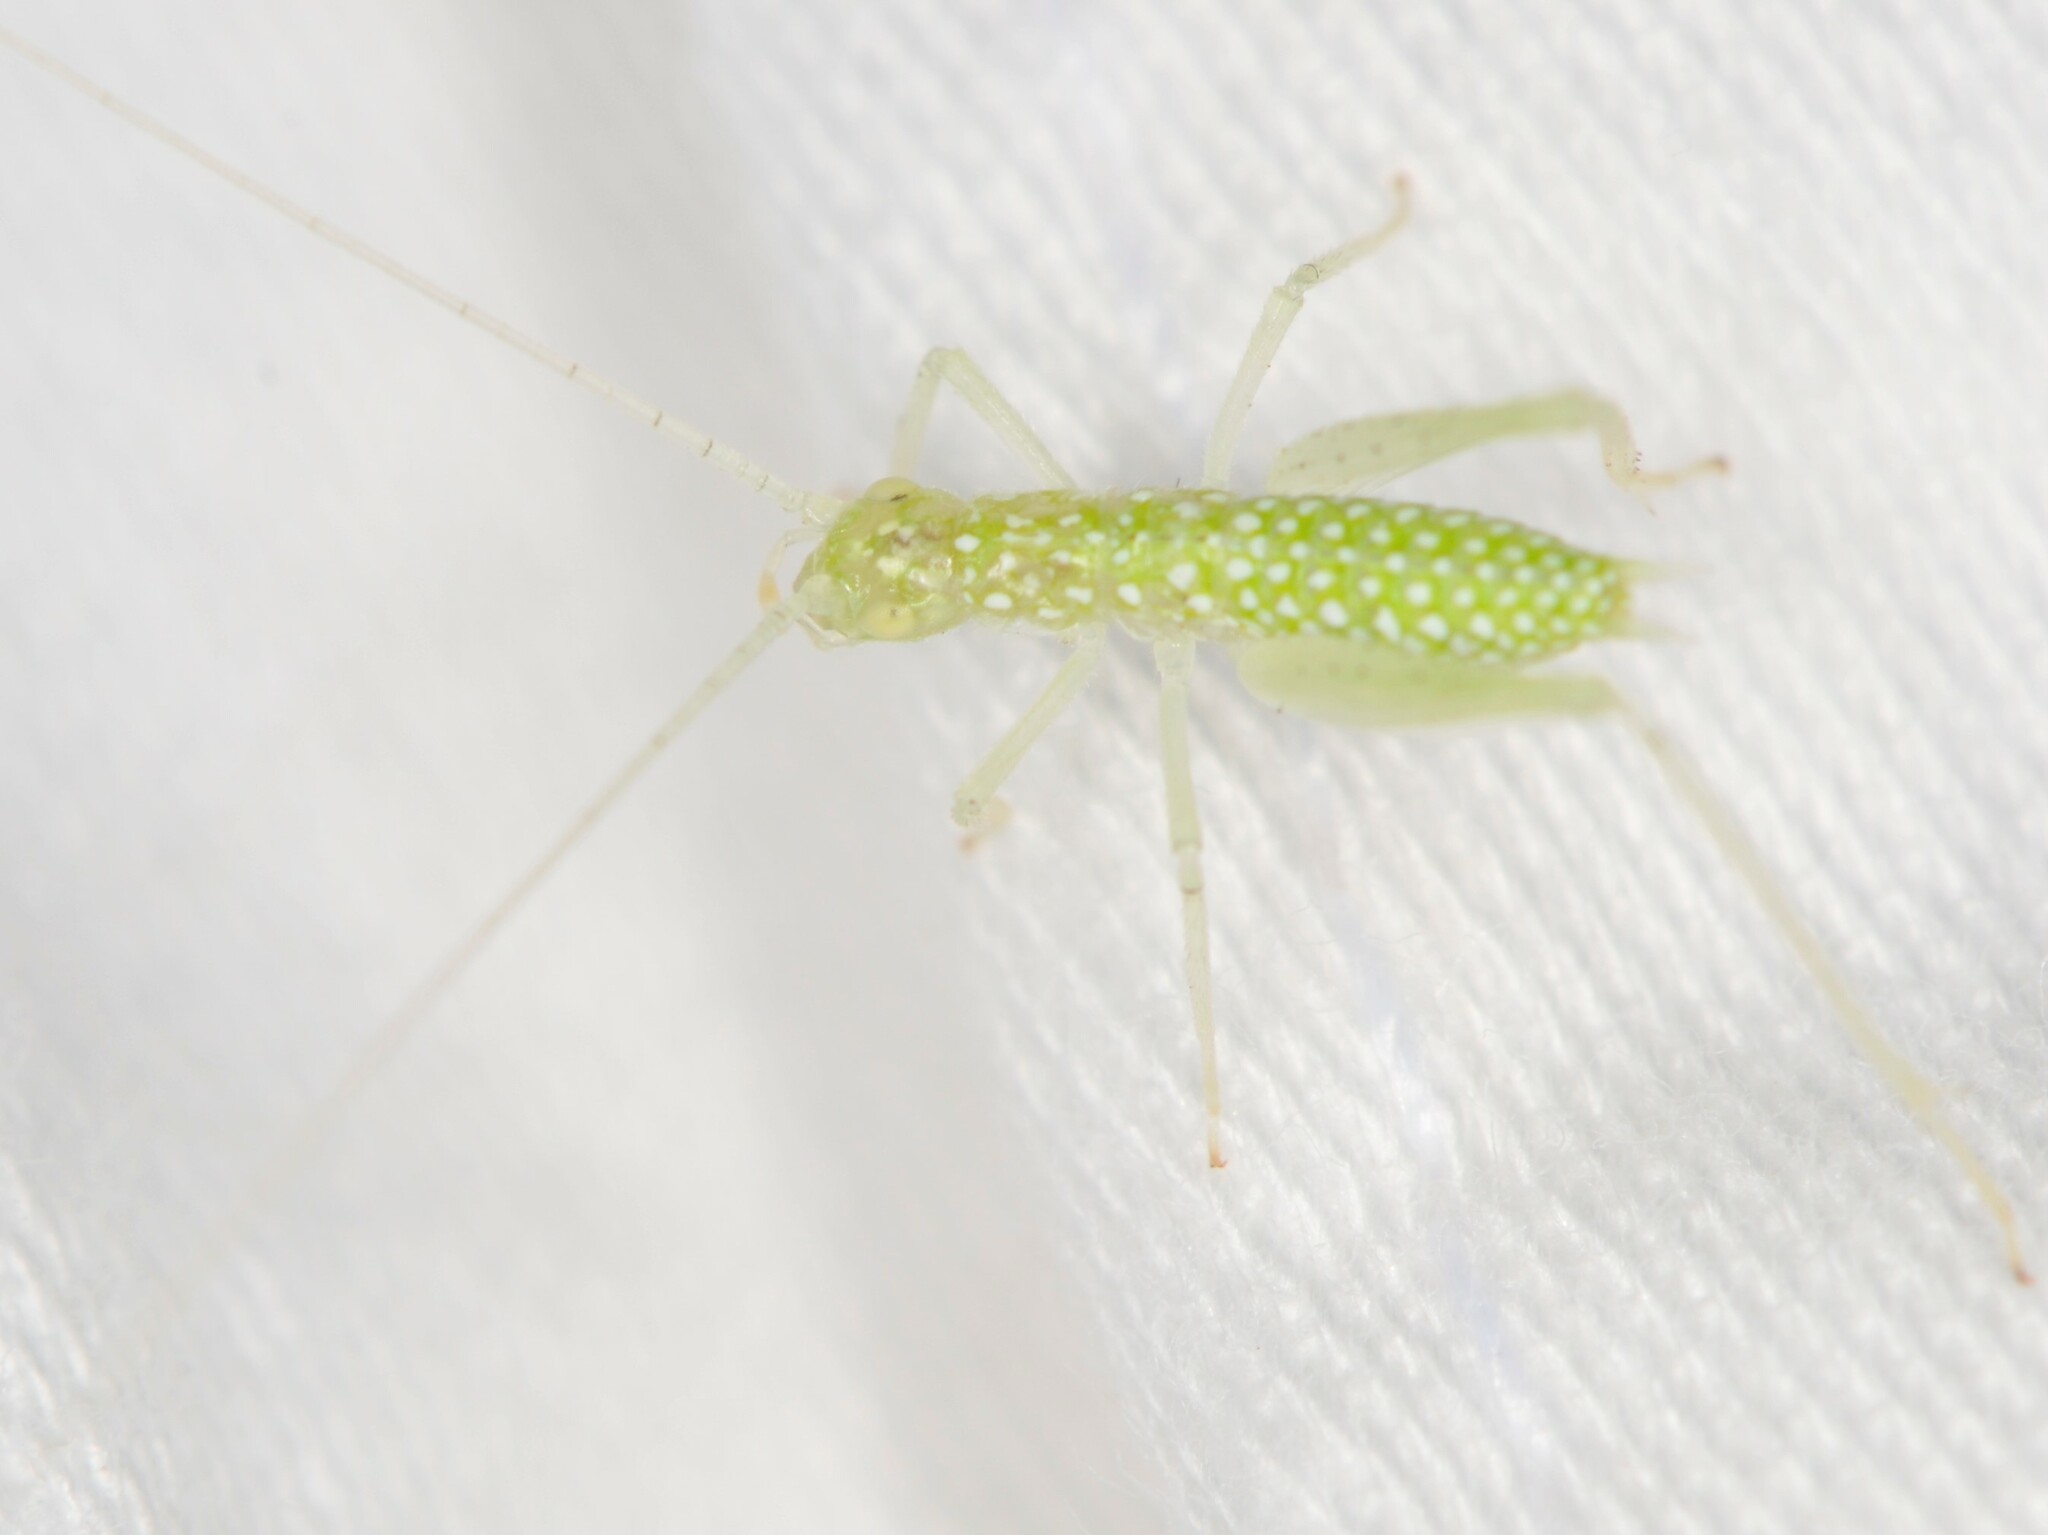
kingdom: Animalia
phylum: Arthropoda
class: Insecta
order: Orthoptera
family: Gryllidae
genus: Oecanthus
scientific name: Oecanthus
